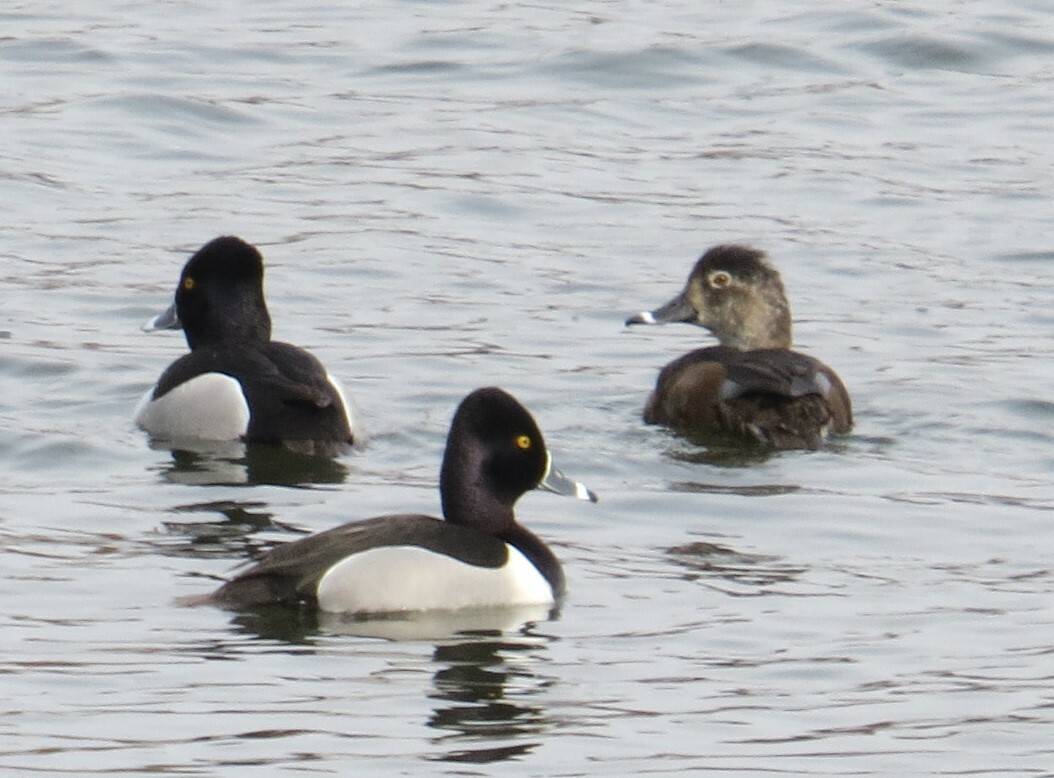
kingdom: Animalia
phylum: Chordata
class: Aves
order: Anseriformes
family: Anatidae
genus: Aythya
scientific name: Aythya collaris
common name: Ring-necked duck
